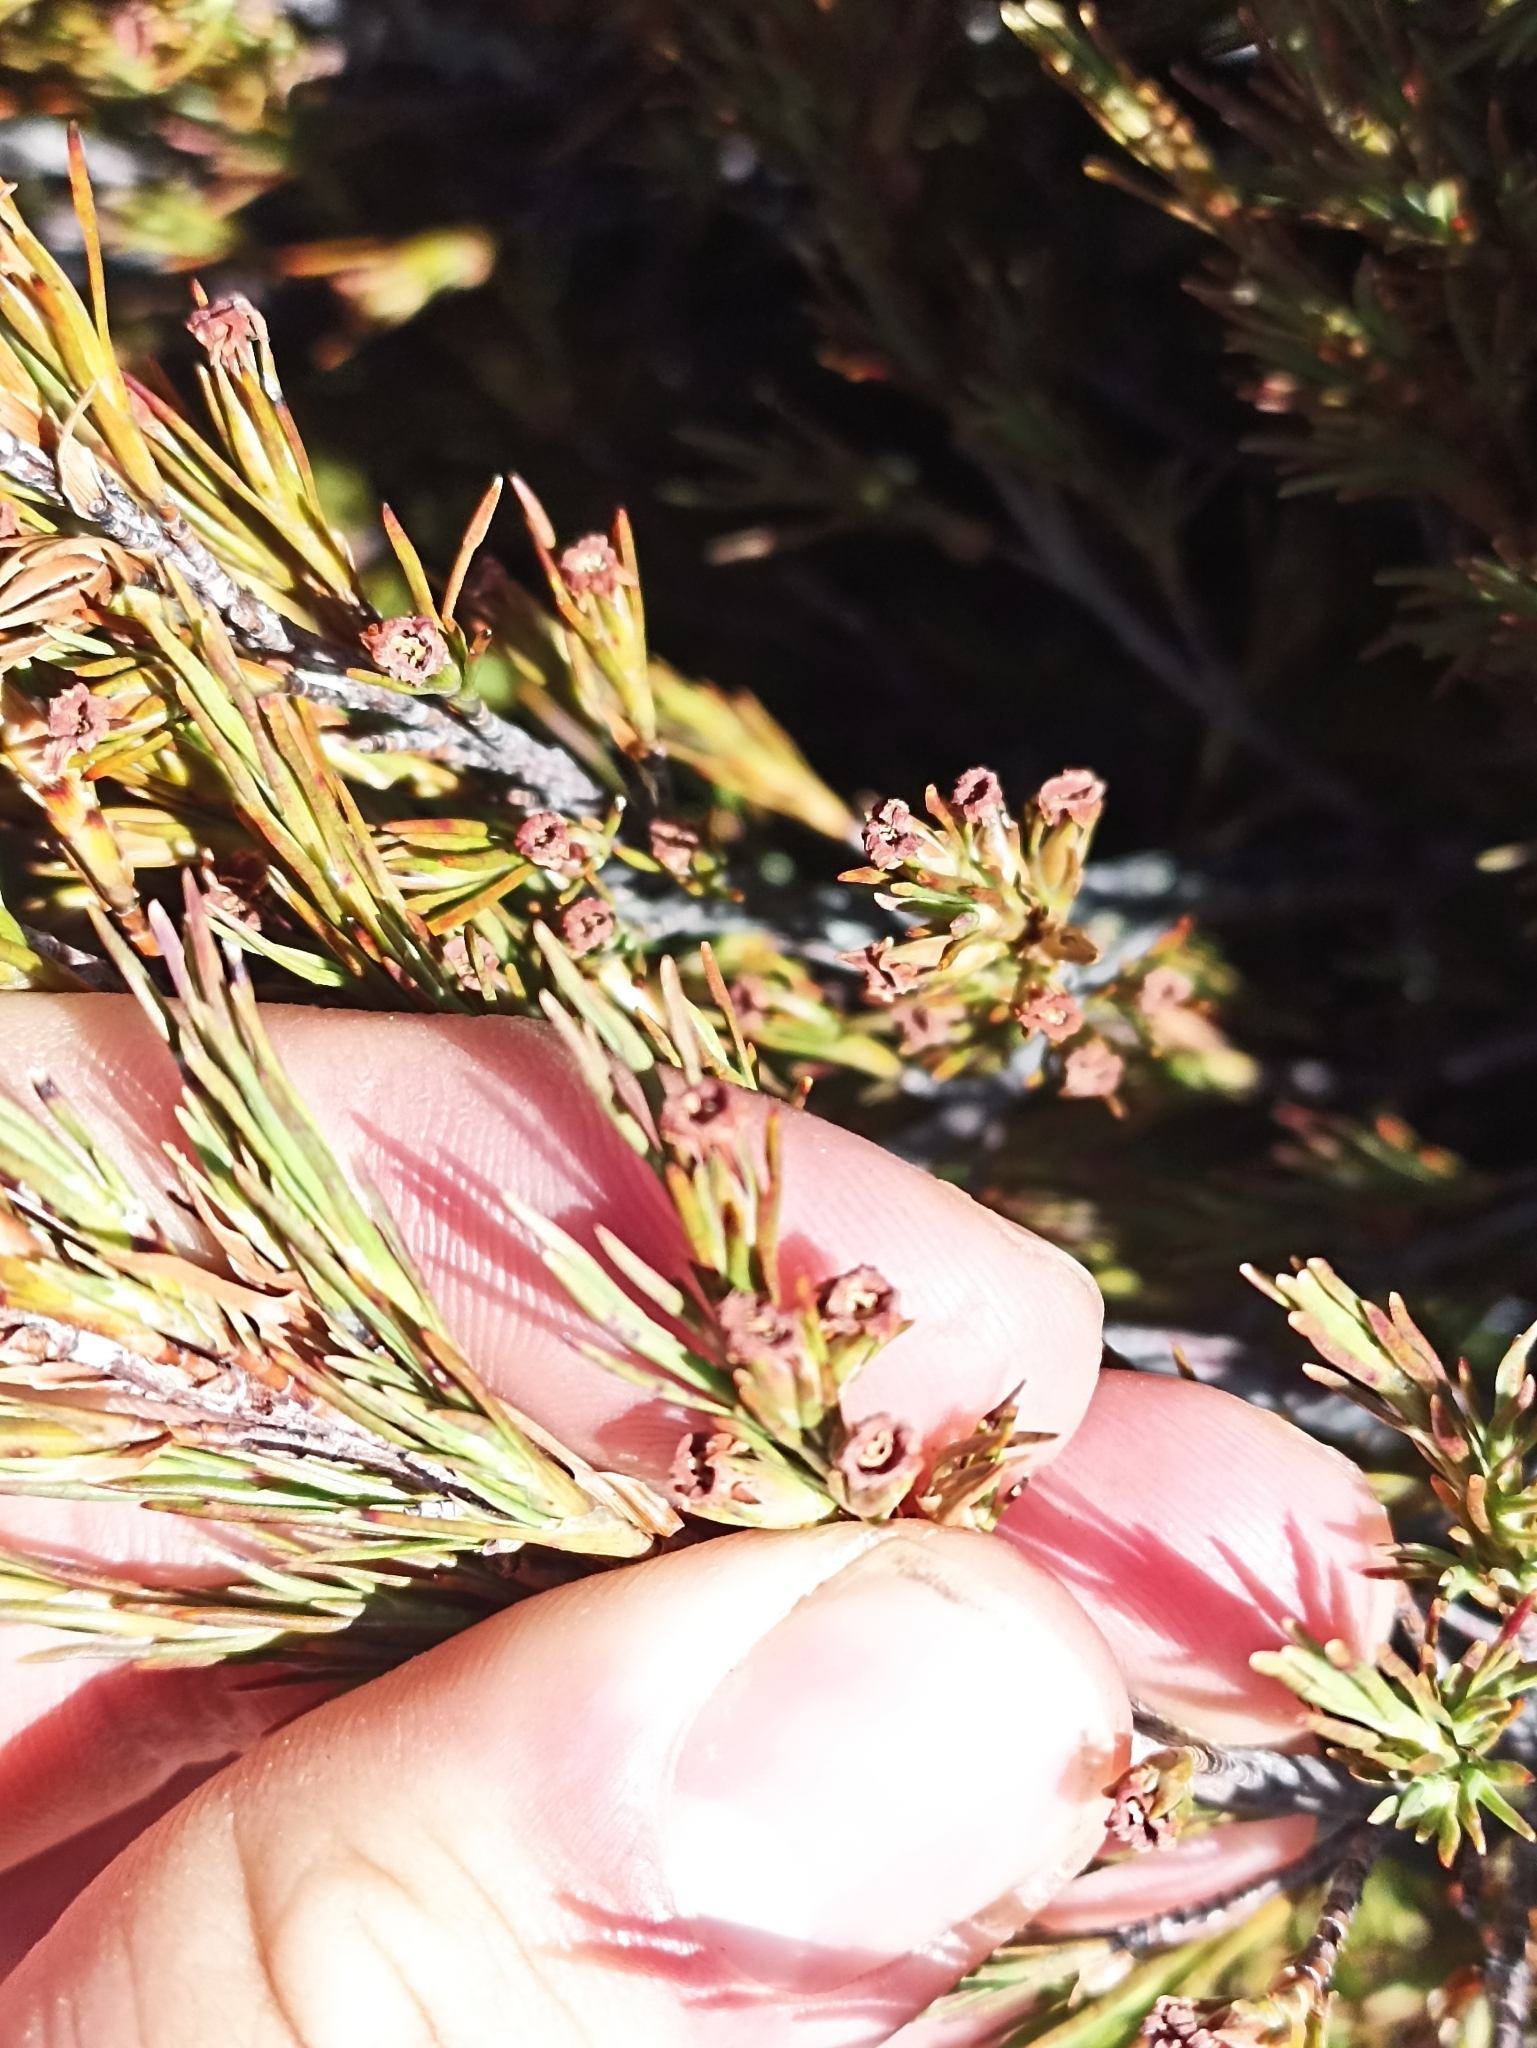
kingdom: Plantae
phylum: Tracheophyta
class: Magnoliopsida
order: Ericales
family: Ericaceae
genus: Dracophyllum
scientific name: Dracophyllum rosmarinifolium
